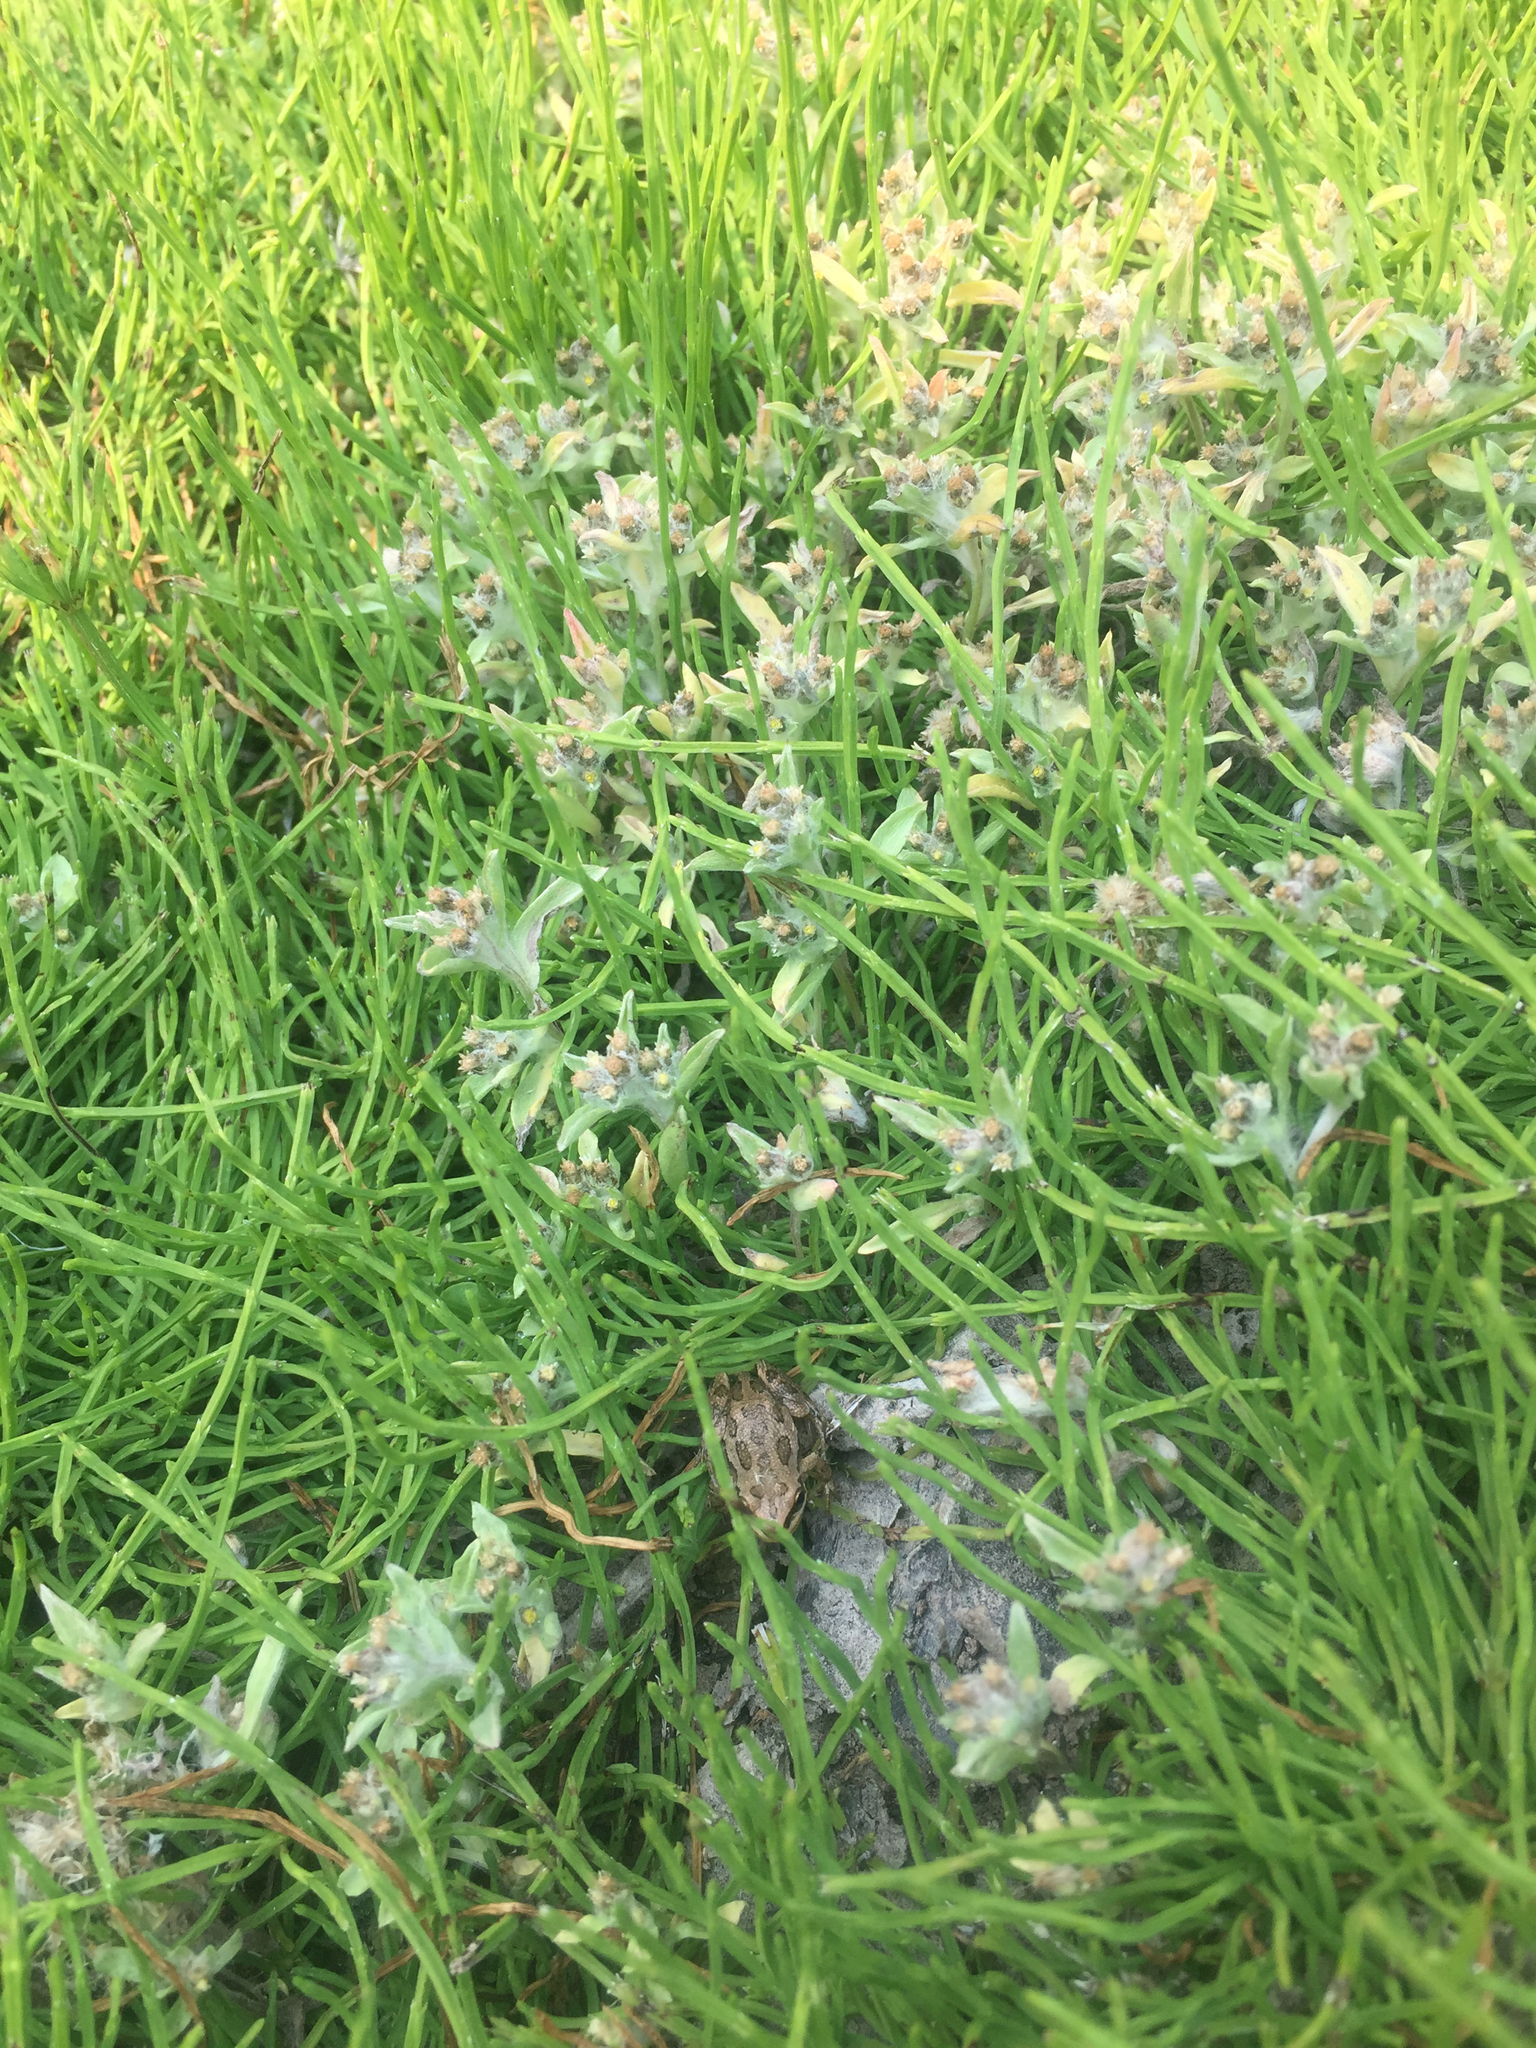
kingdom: Animalia
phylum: Chordata
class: Amphibia
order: Anura
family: Hylidae
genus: Pseudacris
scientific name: Pseudacris maculata
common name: Boreal chorus frog
